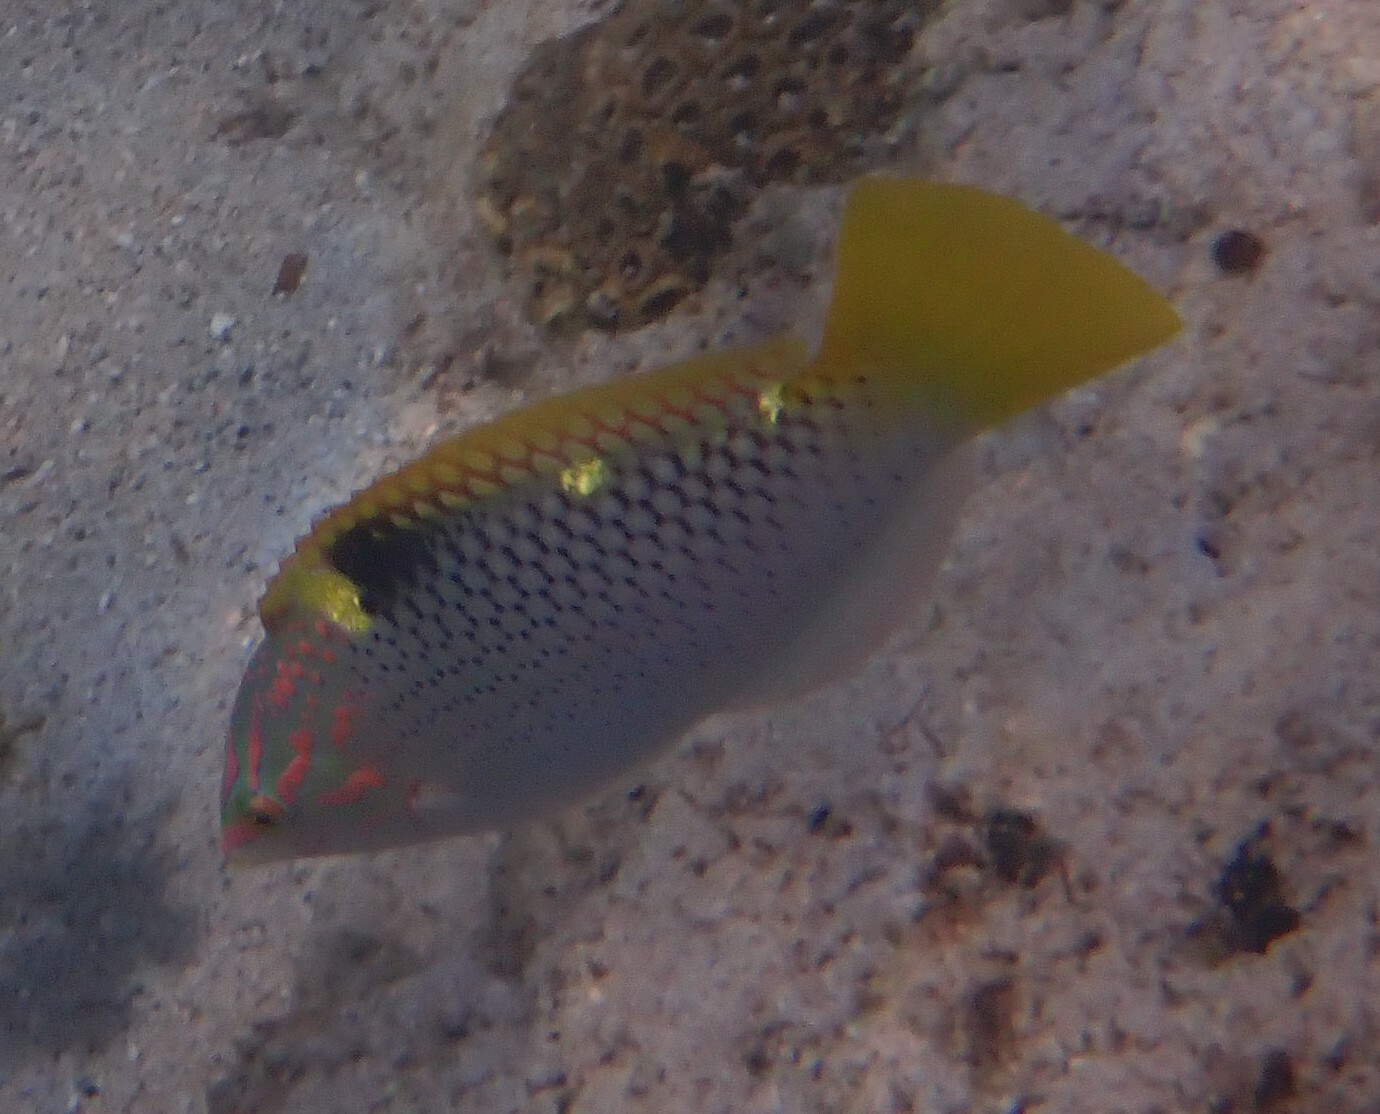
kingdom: Animalia
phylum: Chordata
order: Perciformes
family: Labridae
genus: Halichoeres
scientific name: Halichoeres hortulanus
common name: Checkerboard wrasse
